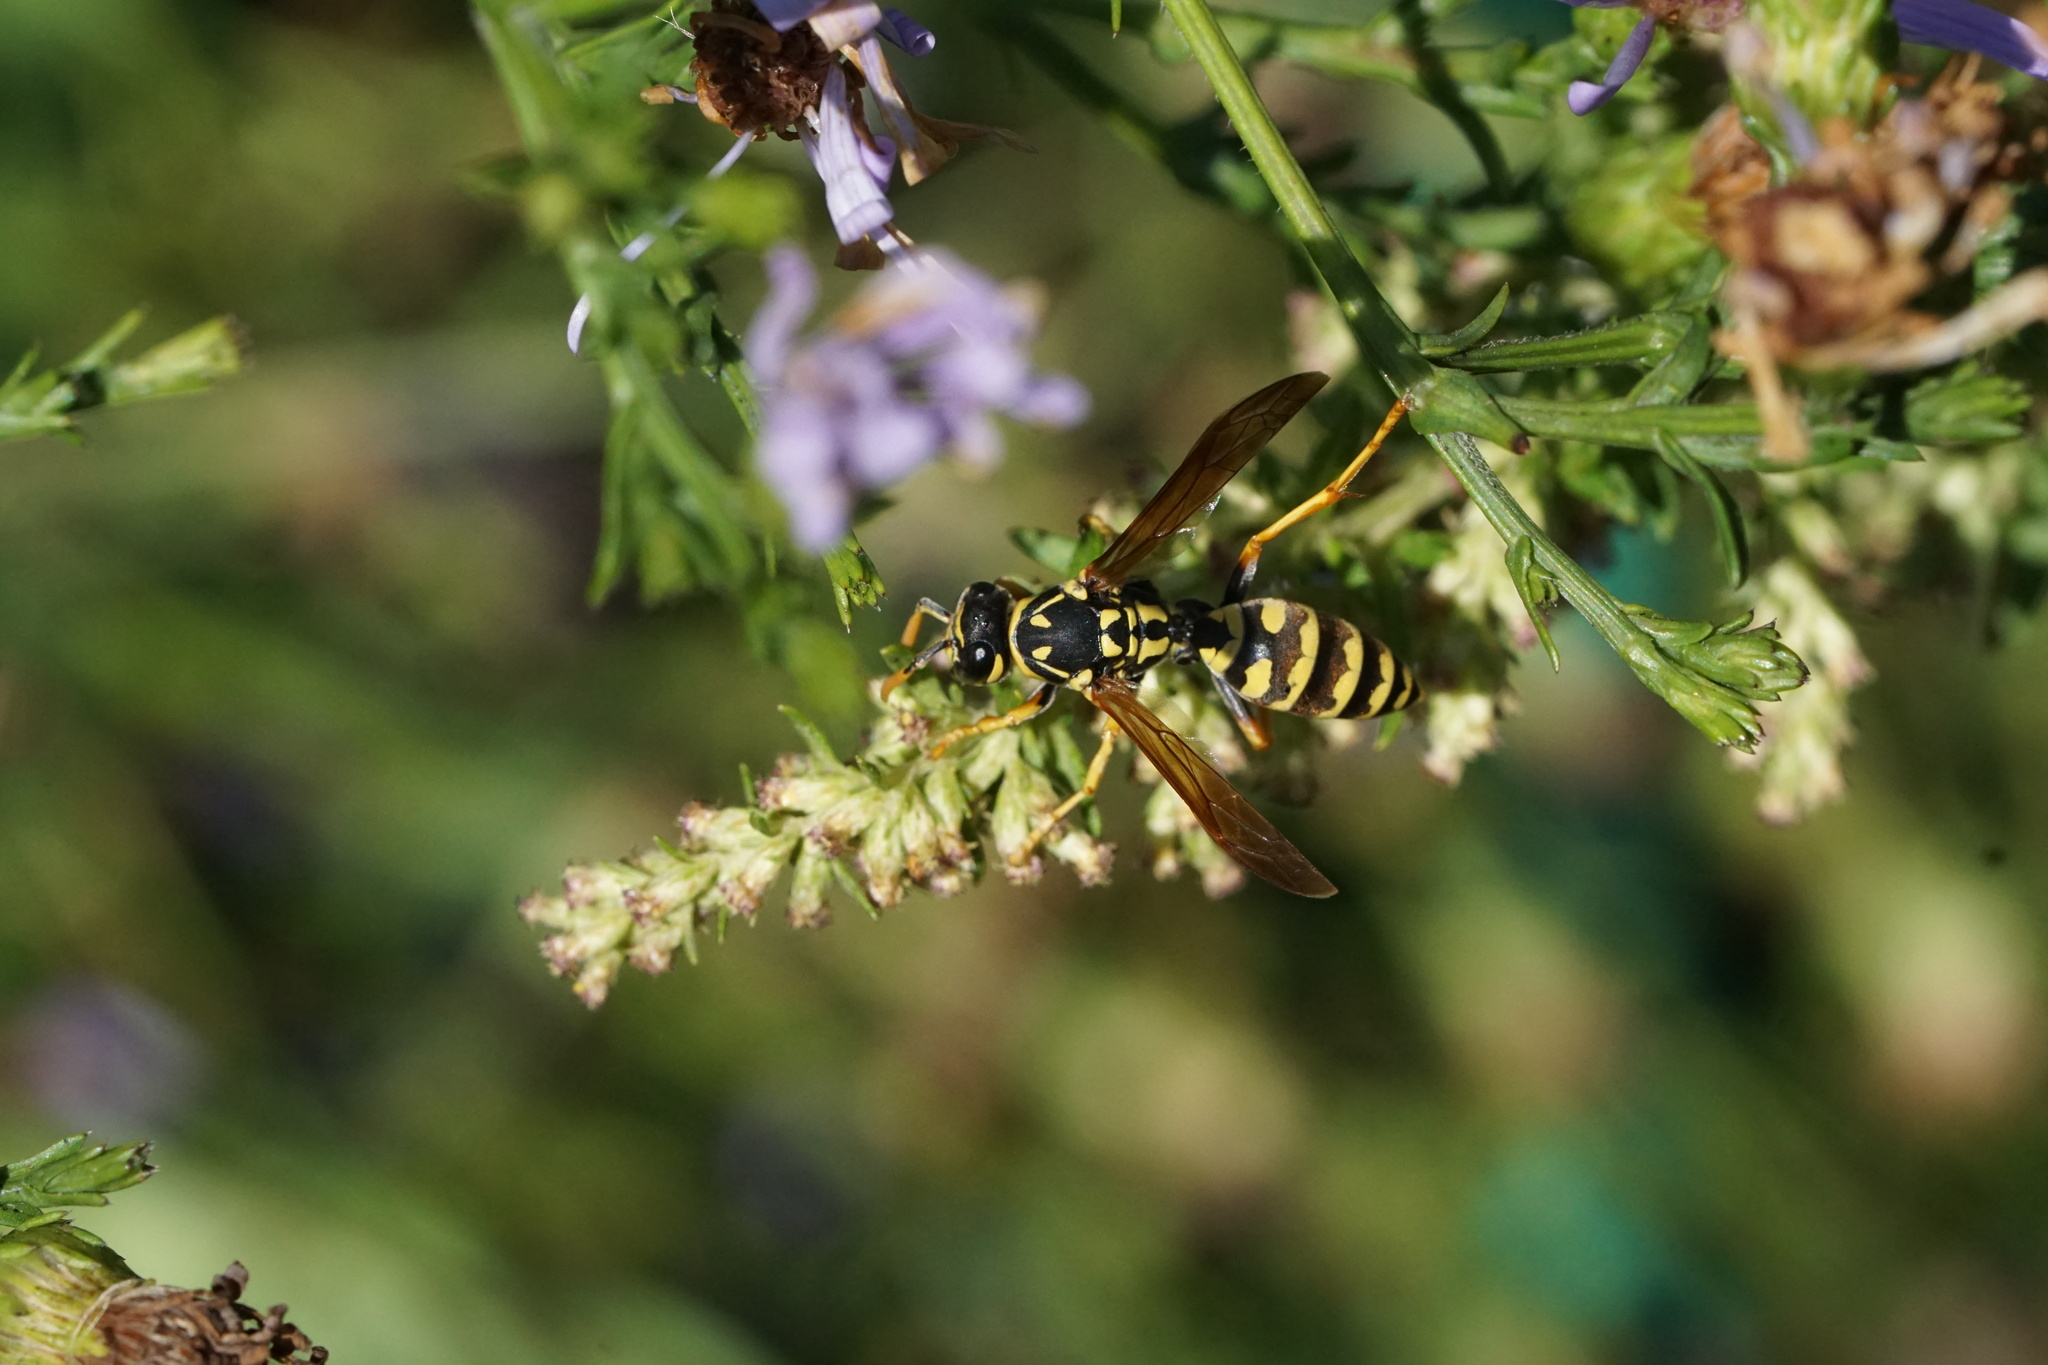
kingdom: Animalia
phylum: Arthropoda
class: Insecta
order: Hymenoptera
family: Eumenidae
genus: Polistes
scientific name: Polistes dominula
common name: Paper wasp
